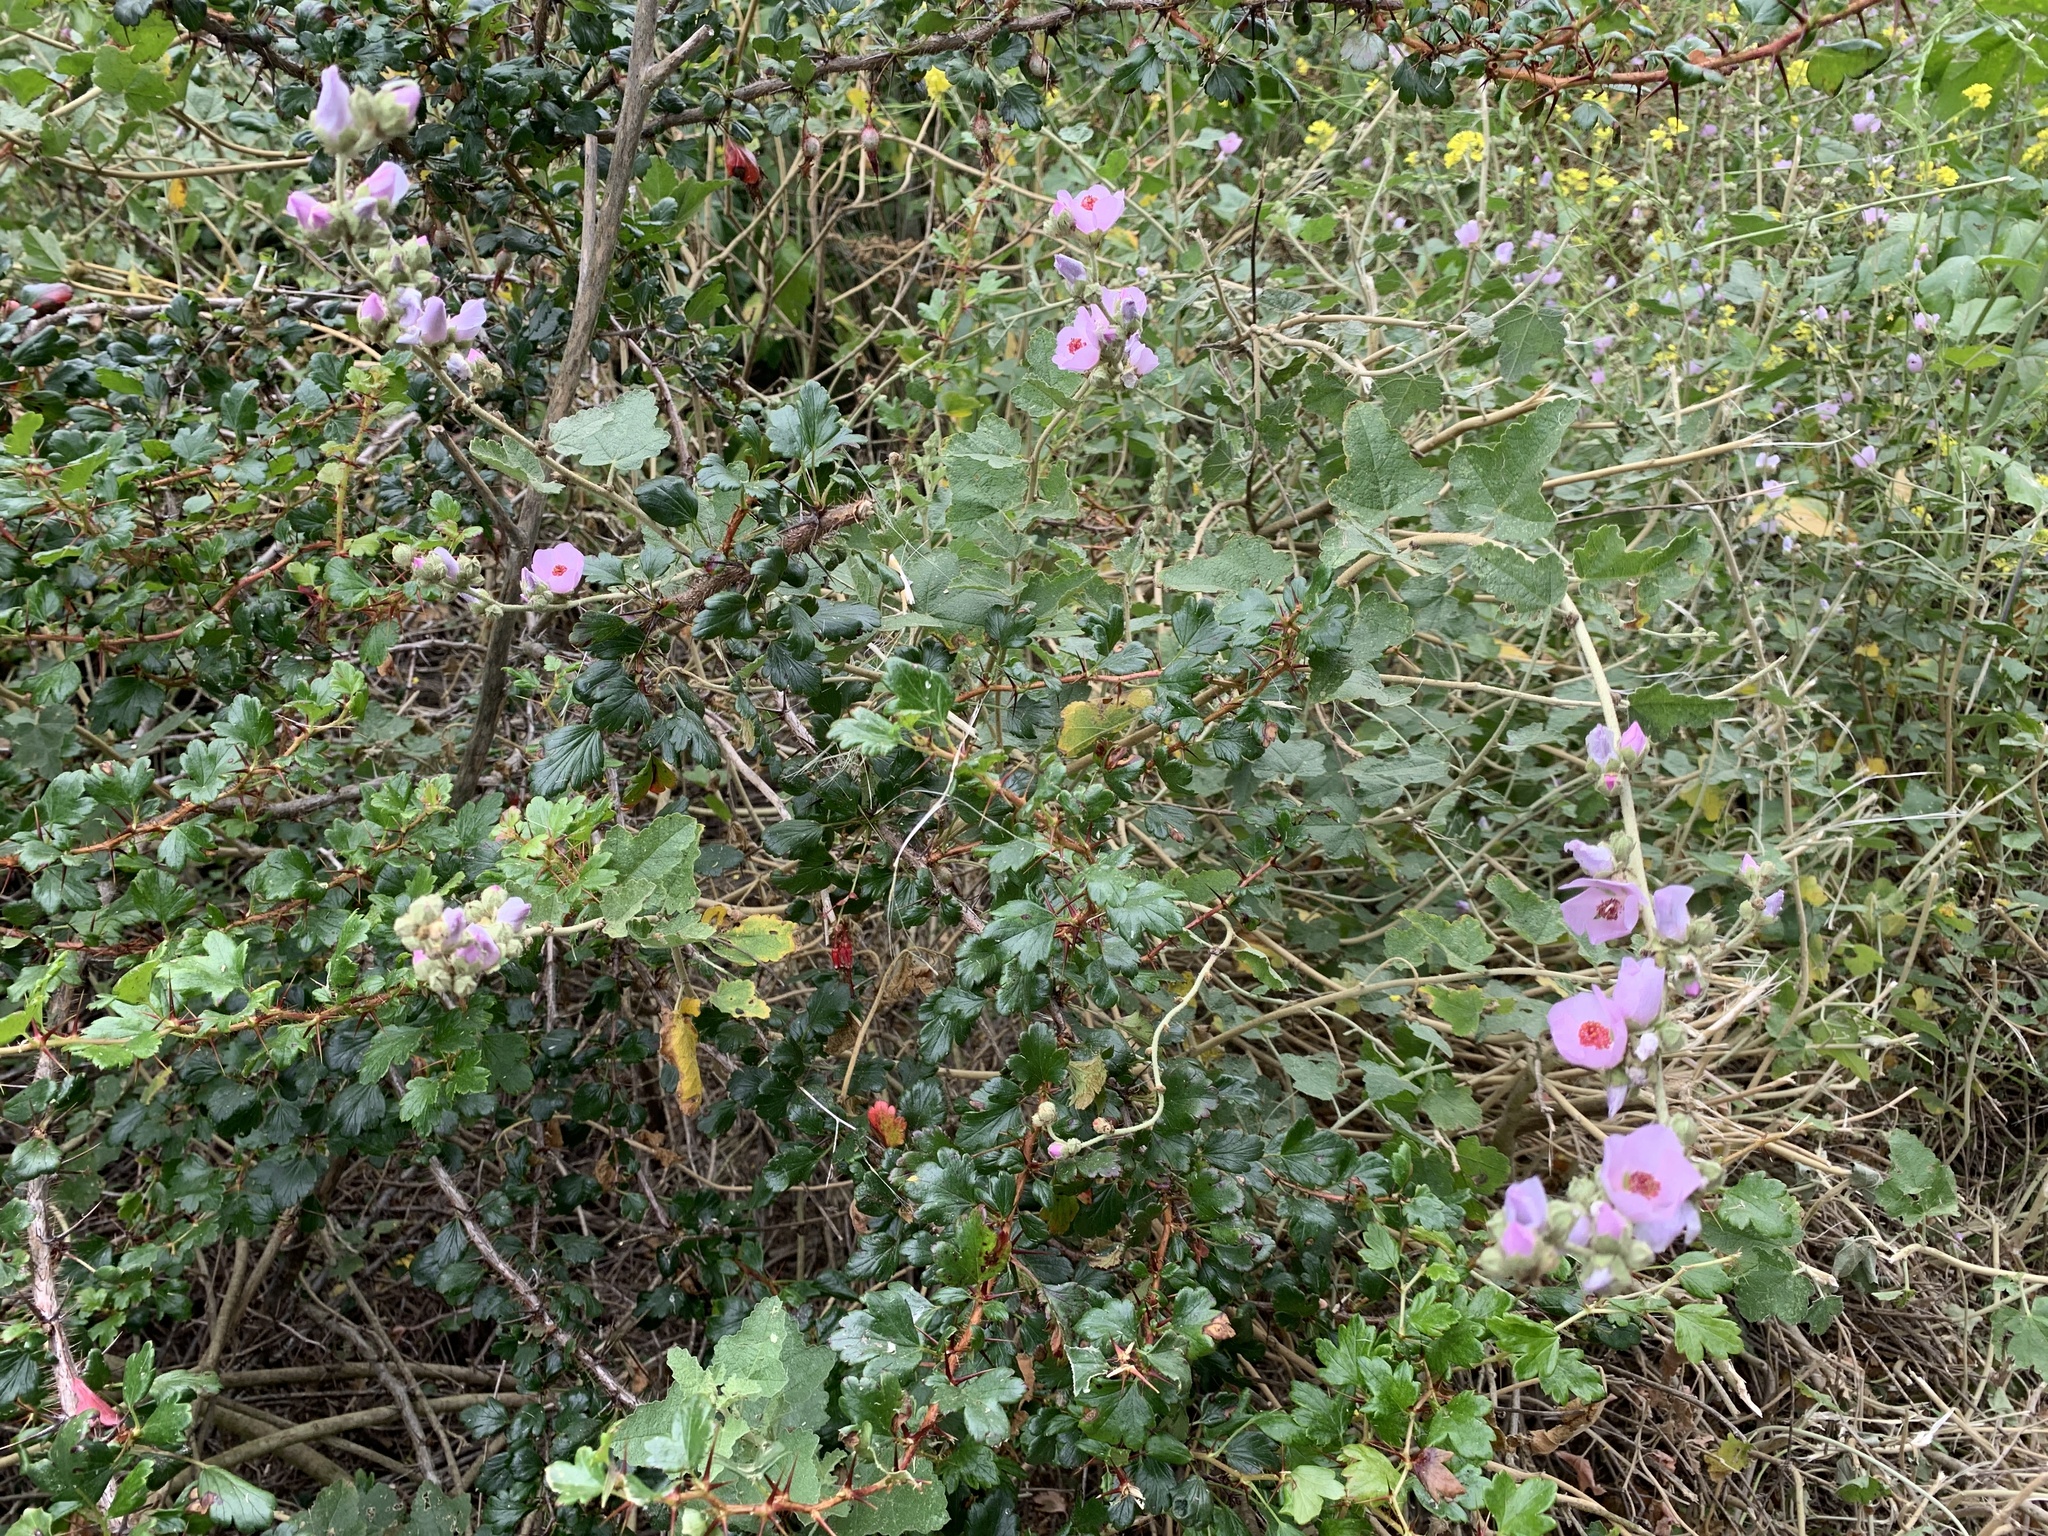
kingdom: Plantae
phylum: Tracheophyta
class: Magnoliopsida
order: Malvales
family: Malvaceae
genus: Malacothamnus
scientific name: Malacothamnus fasciculatus
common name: Sant cruz island bush-mallow
